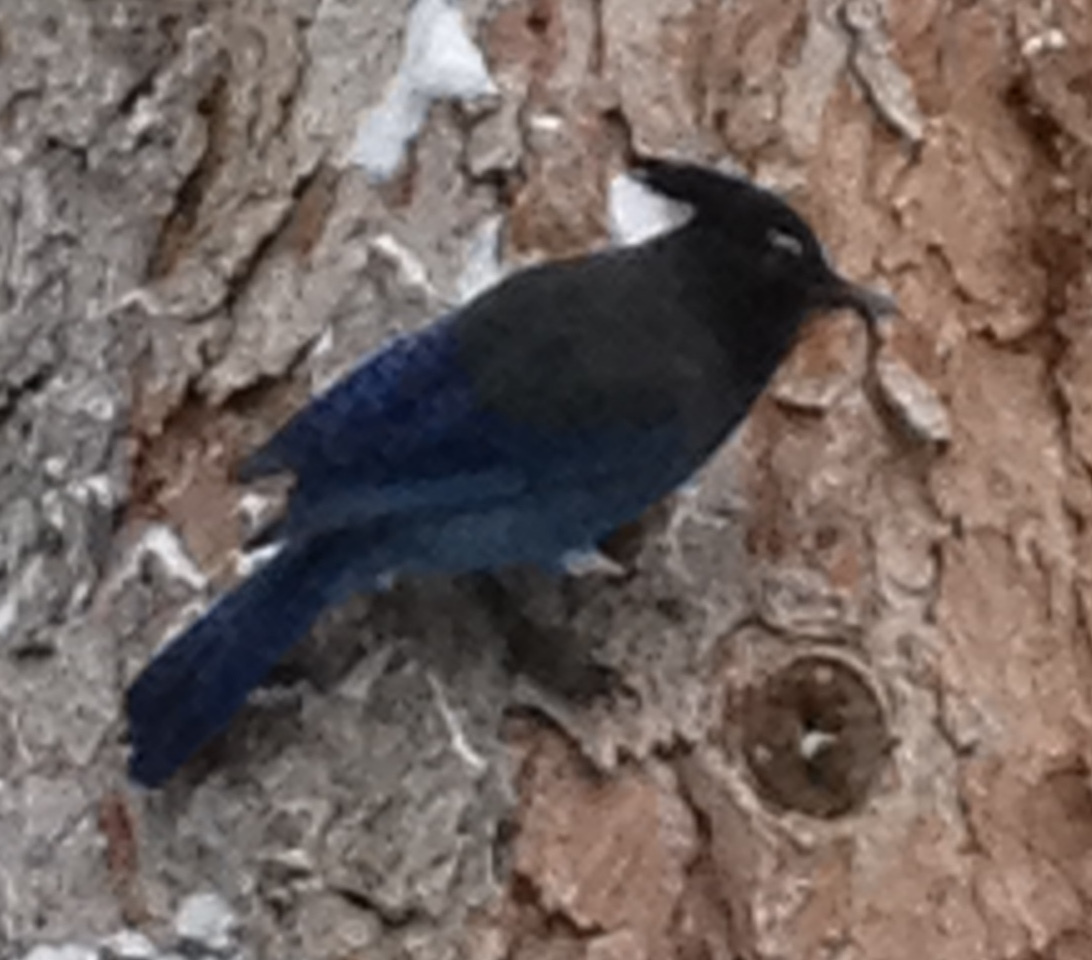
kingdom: Animalia
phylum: Chordata
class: Aves
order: Passeriformes
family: Corvidae
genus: Cyanocitta
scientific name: Cyanocitta stelleri
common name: Steller's jay
